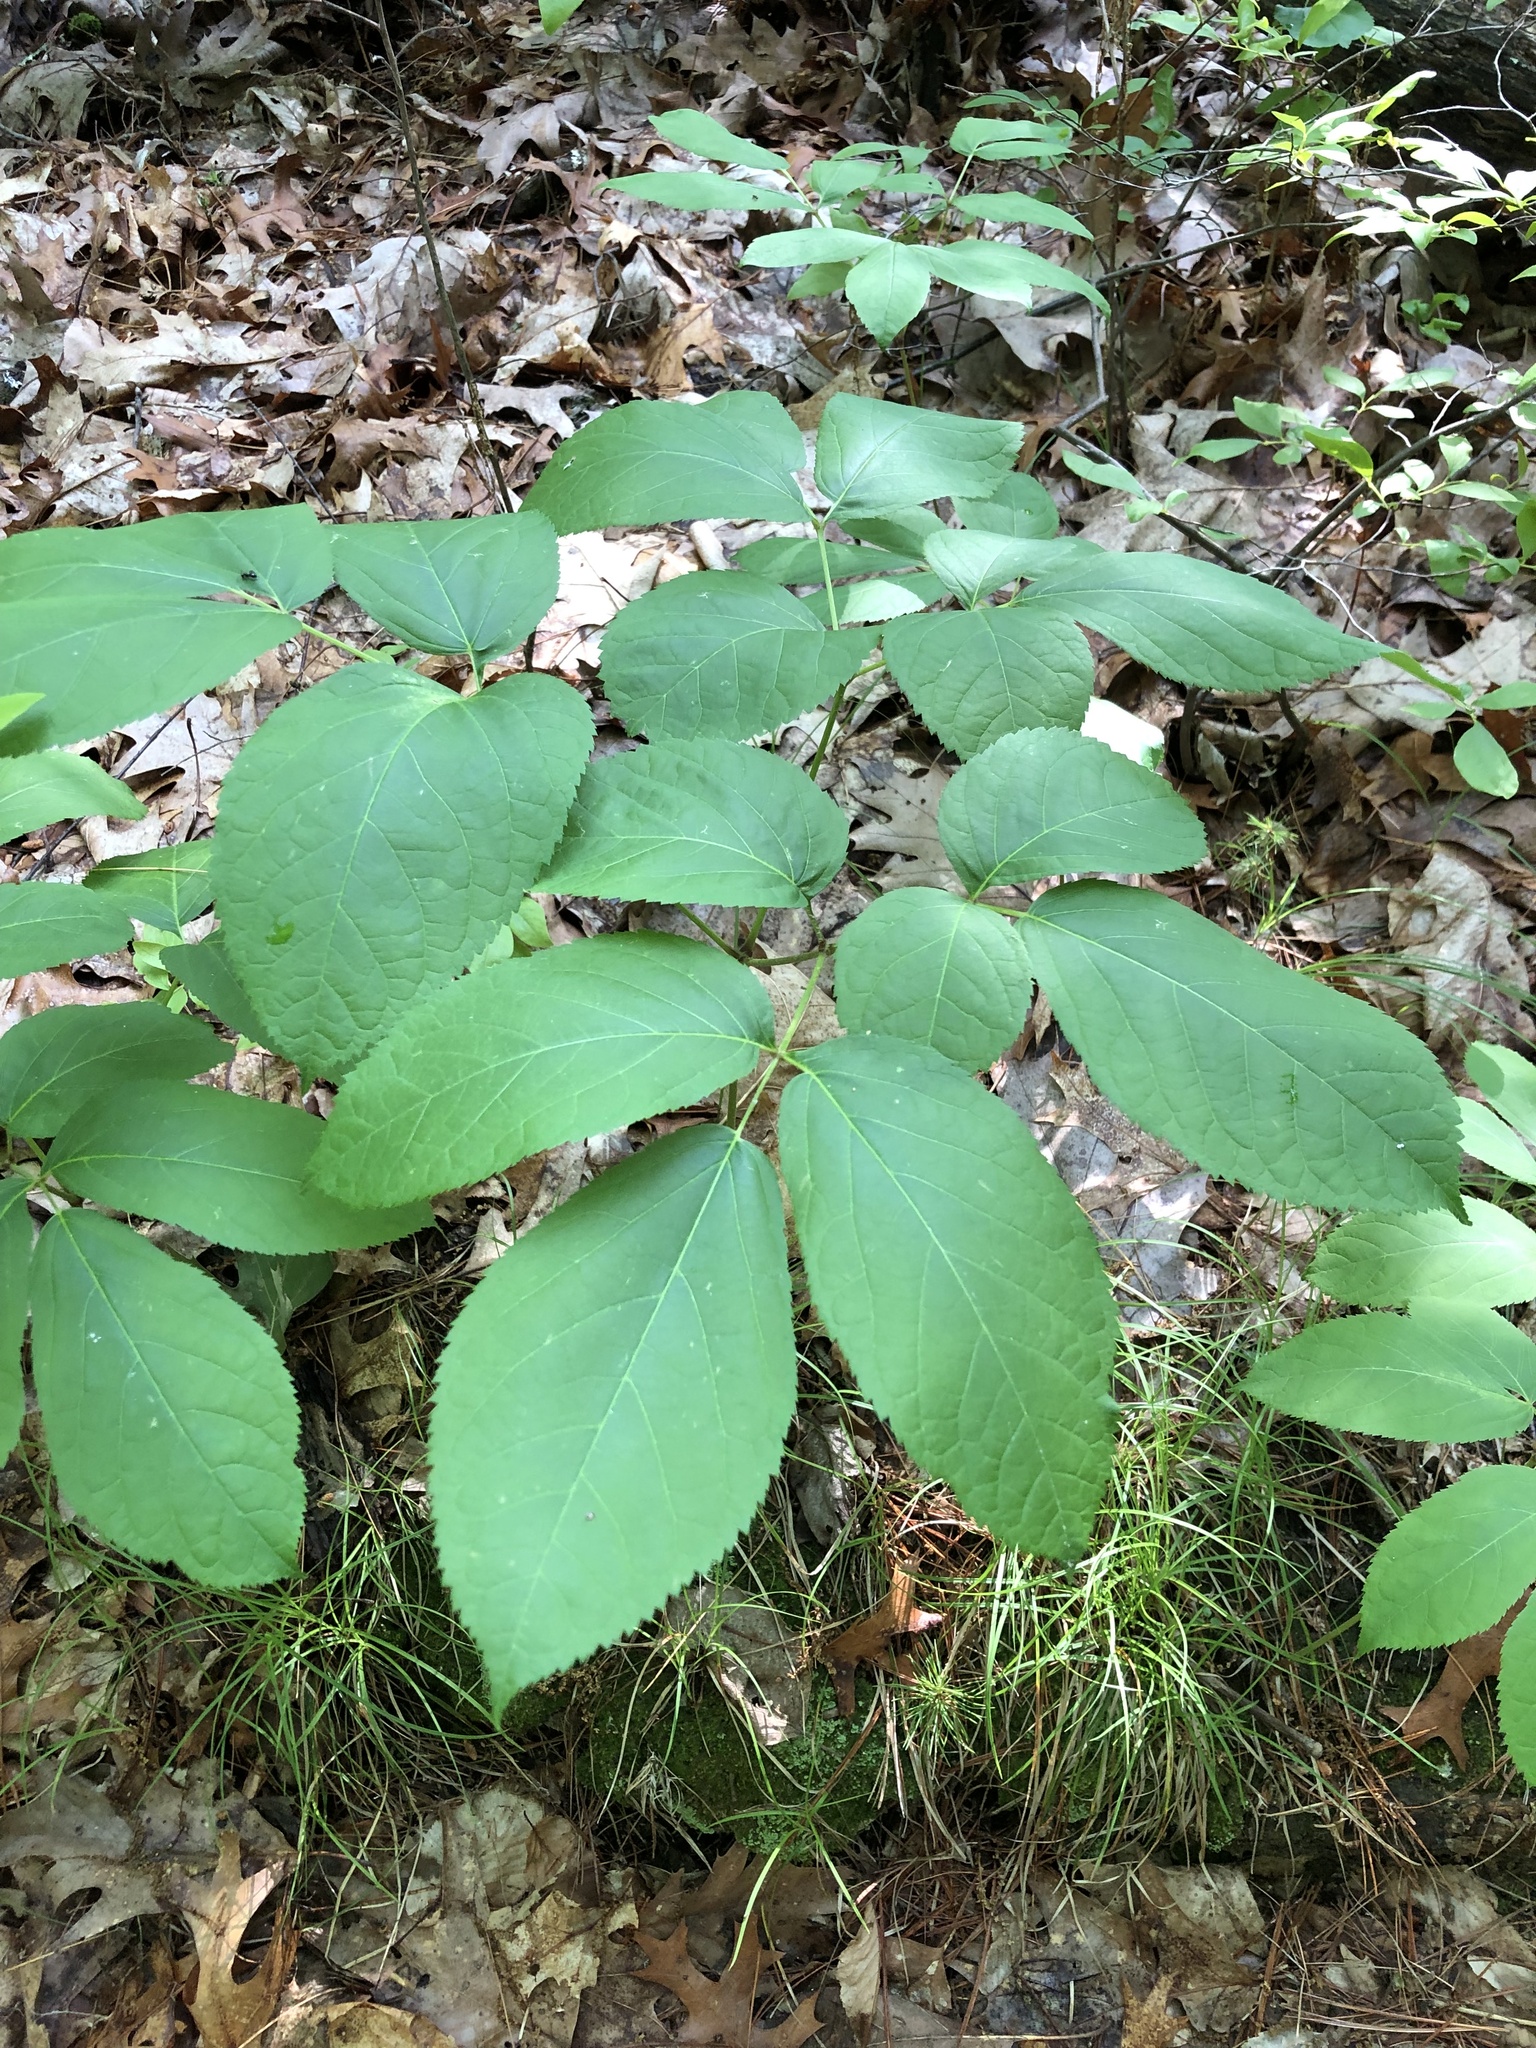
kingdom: Plantae
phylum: Tracheophyta
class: Magnoliopsida
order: Apiales
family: Araliaceae
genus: Aralia
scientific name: Aralia nudicaulis
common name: Wild sarsaparilla
